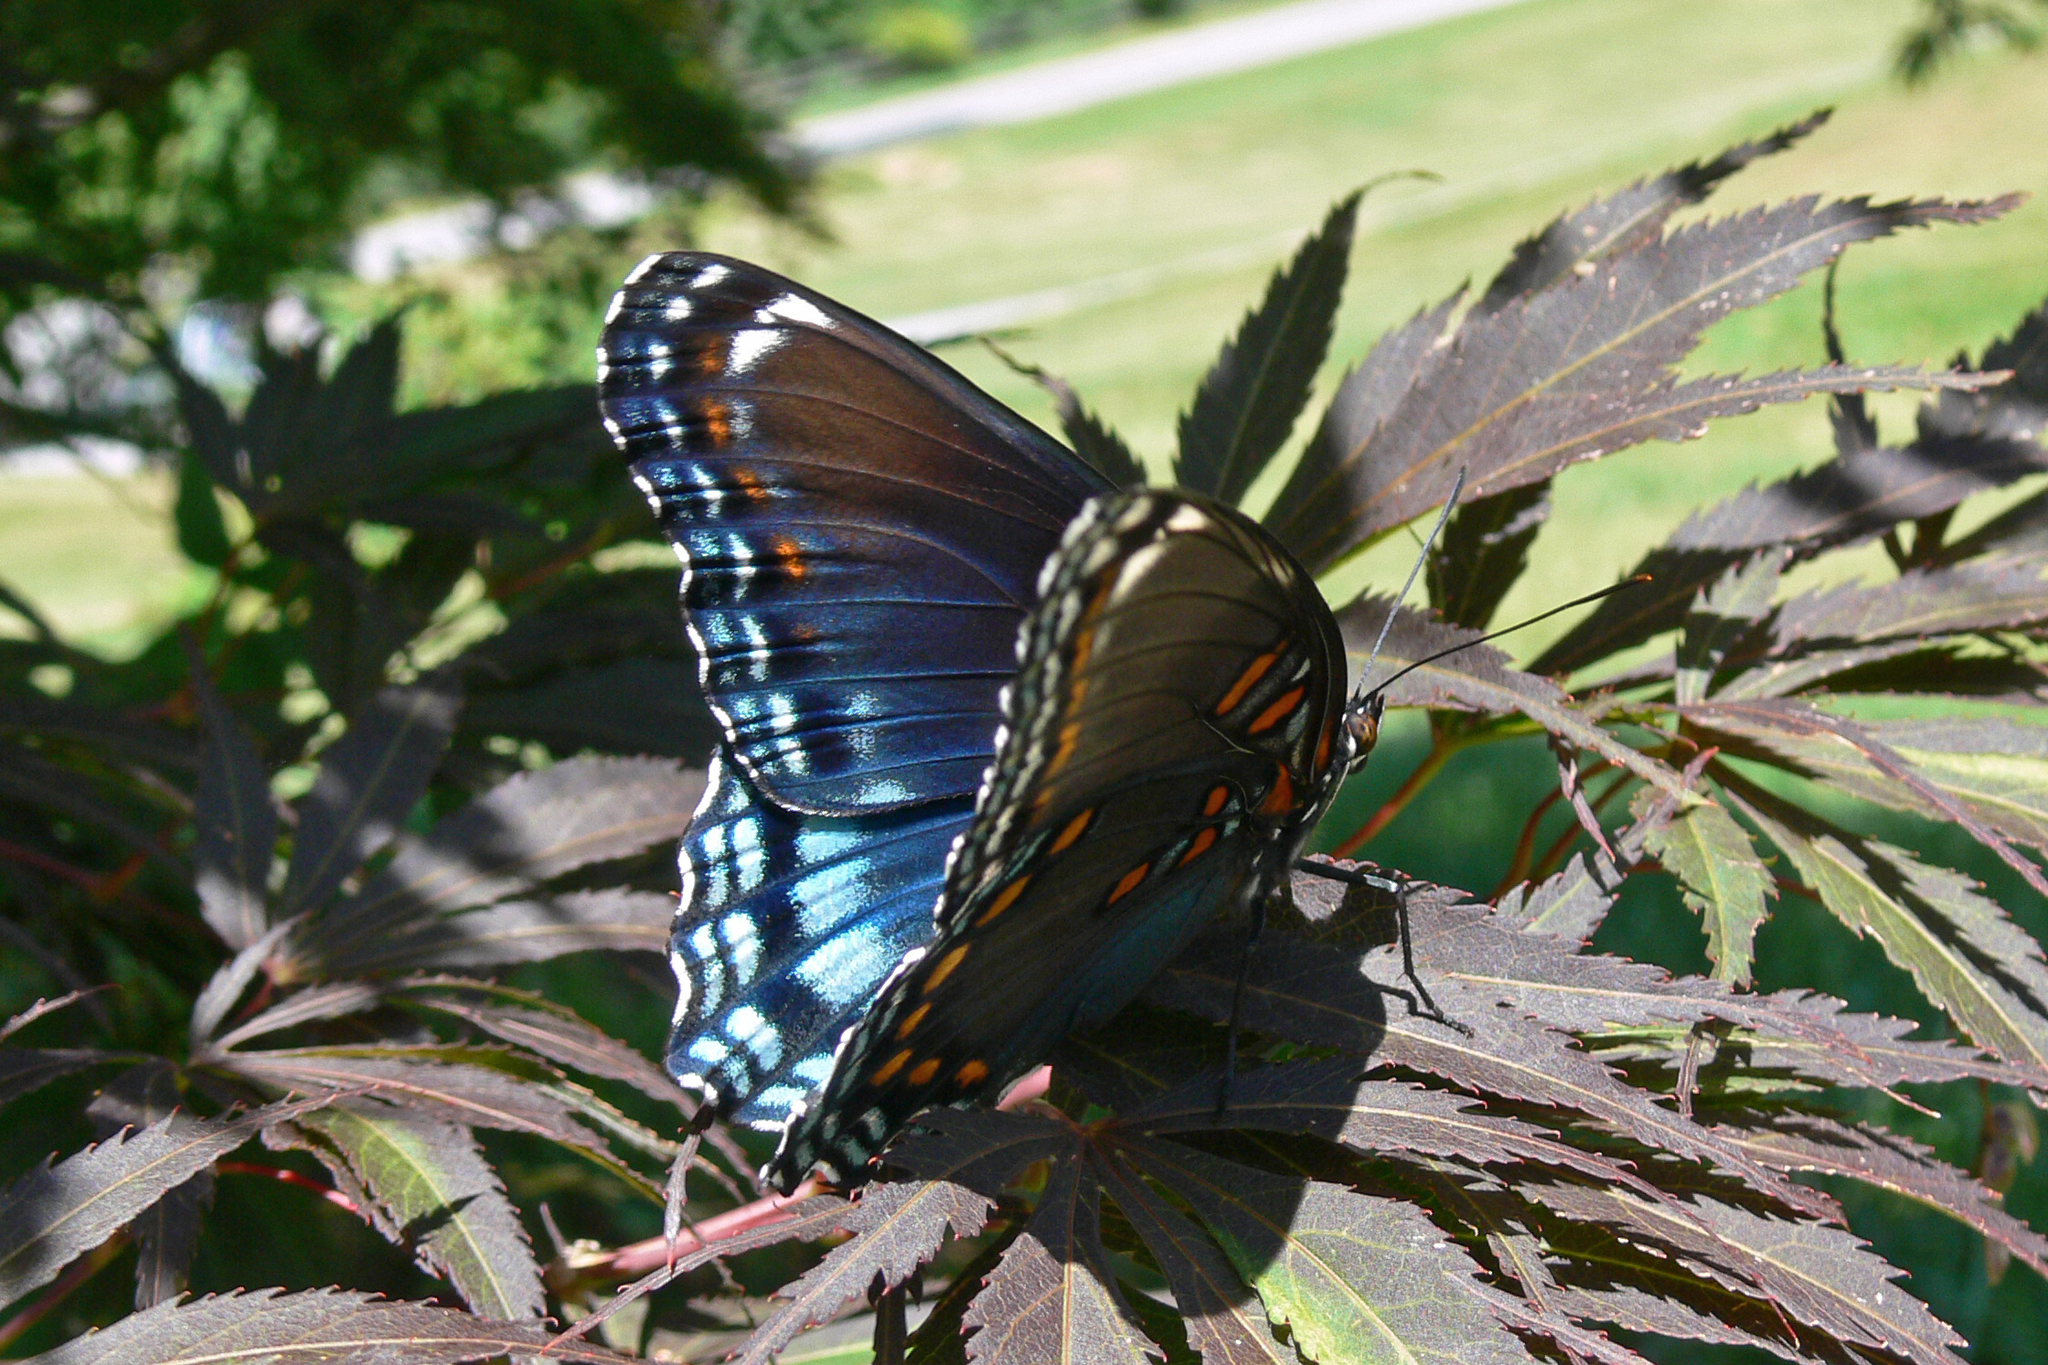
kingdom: Animalia
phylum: Arthropoda
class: Insecta
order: Lepidoptera
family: Nymphalidae
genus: Limenitis
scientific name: Limenitis astyanax
